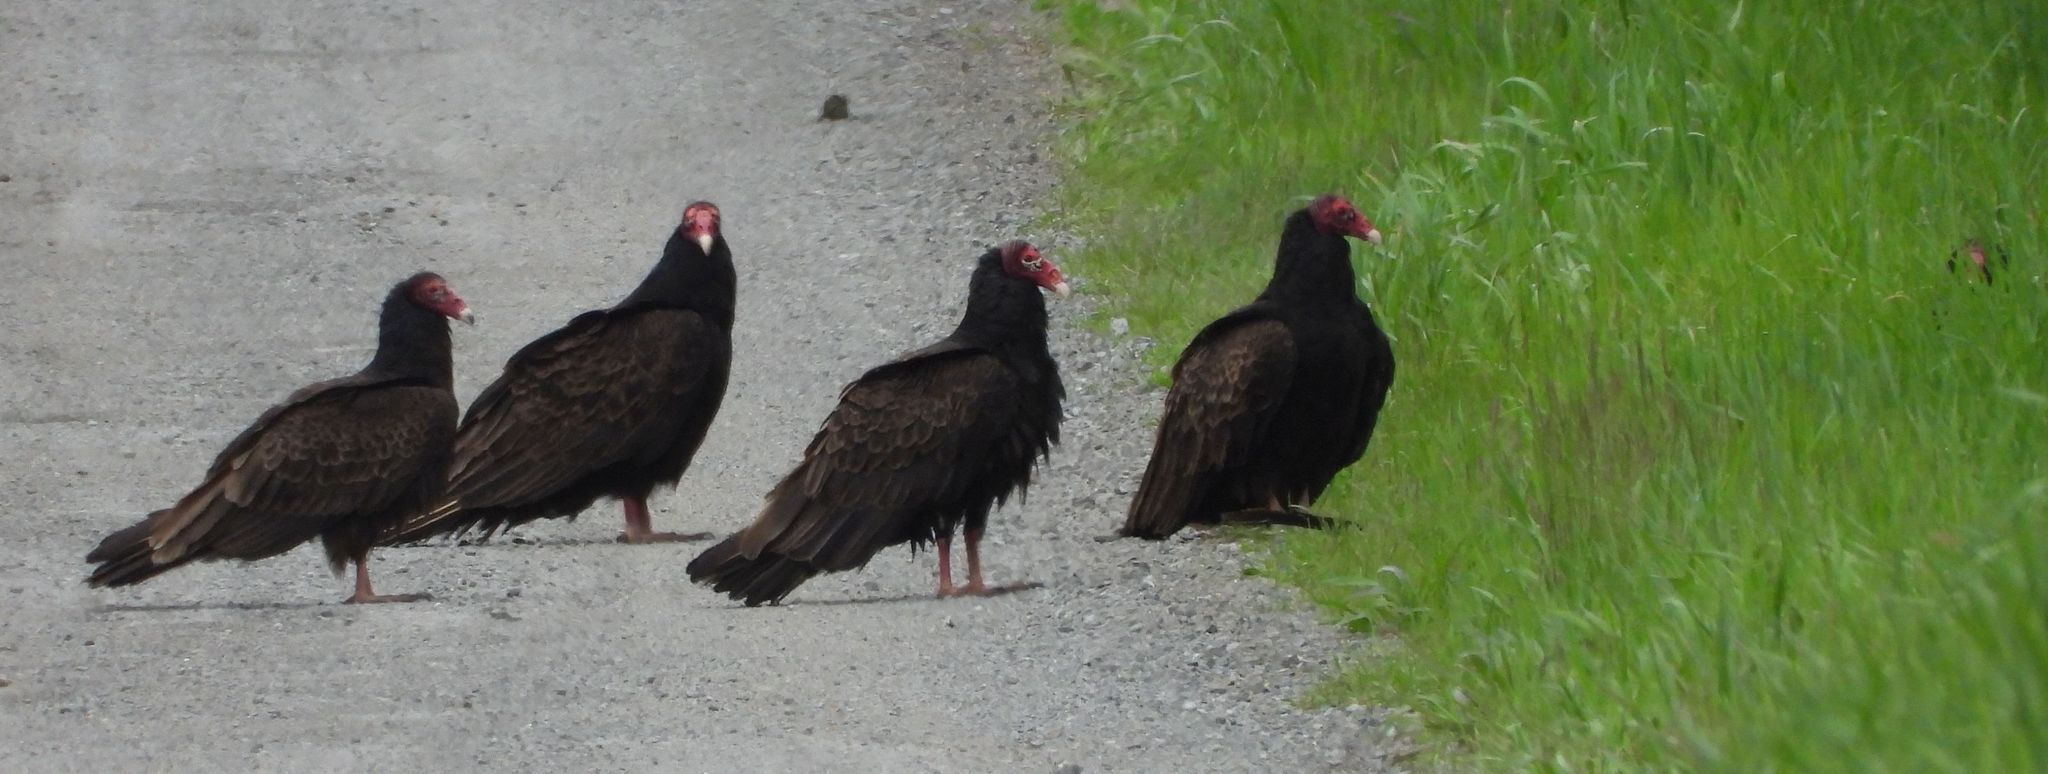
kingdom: Animalia
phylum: Chordata
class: Aves
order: Accipitriformes
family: Cathartidae
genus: Cathartes
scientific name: Cathartes aura
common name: Turkey vulture
